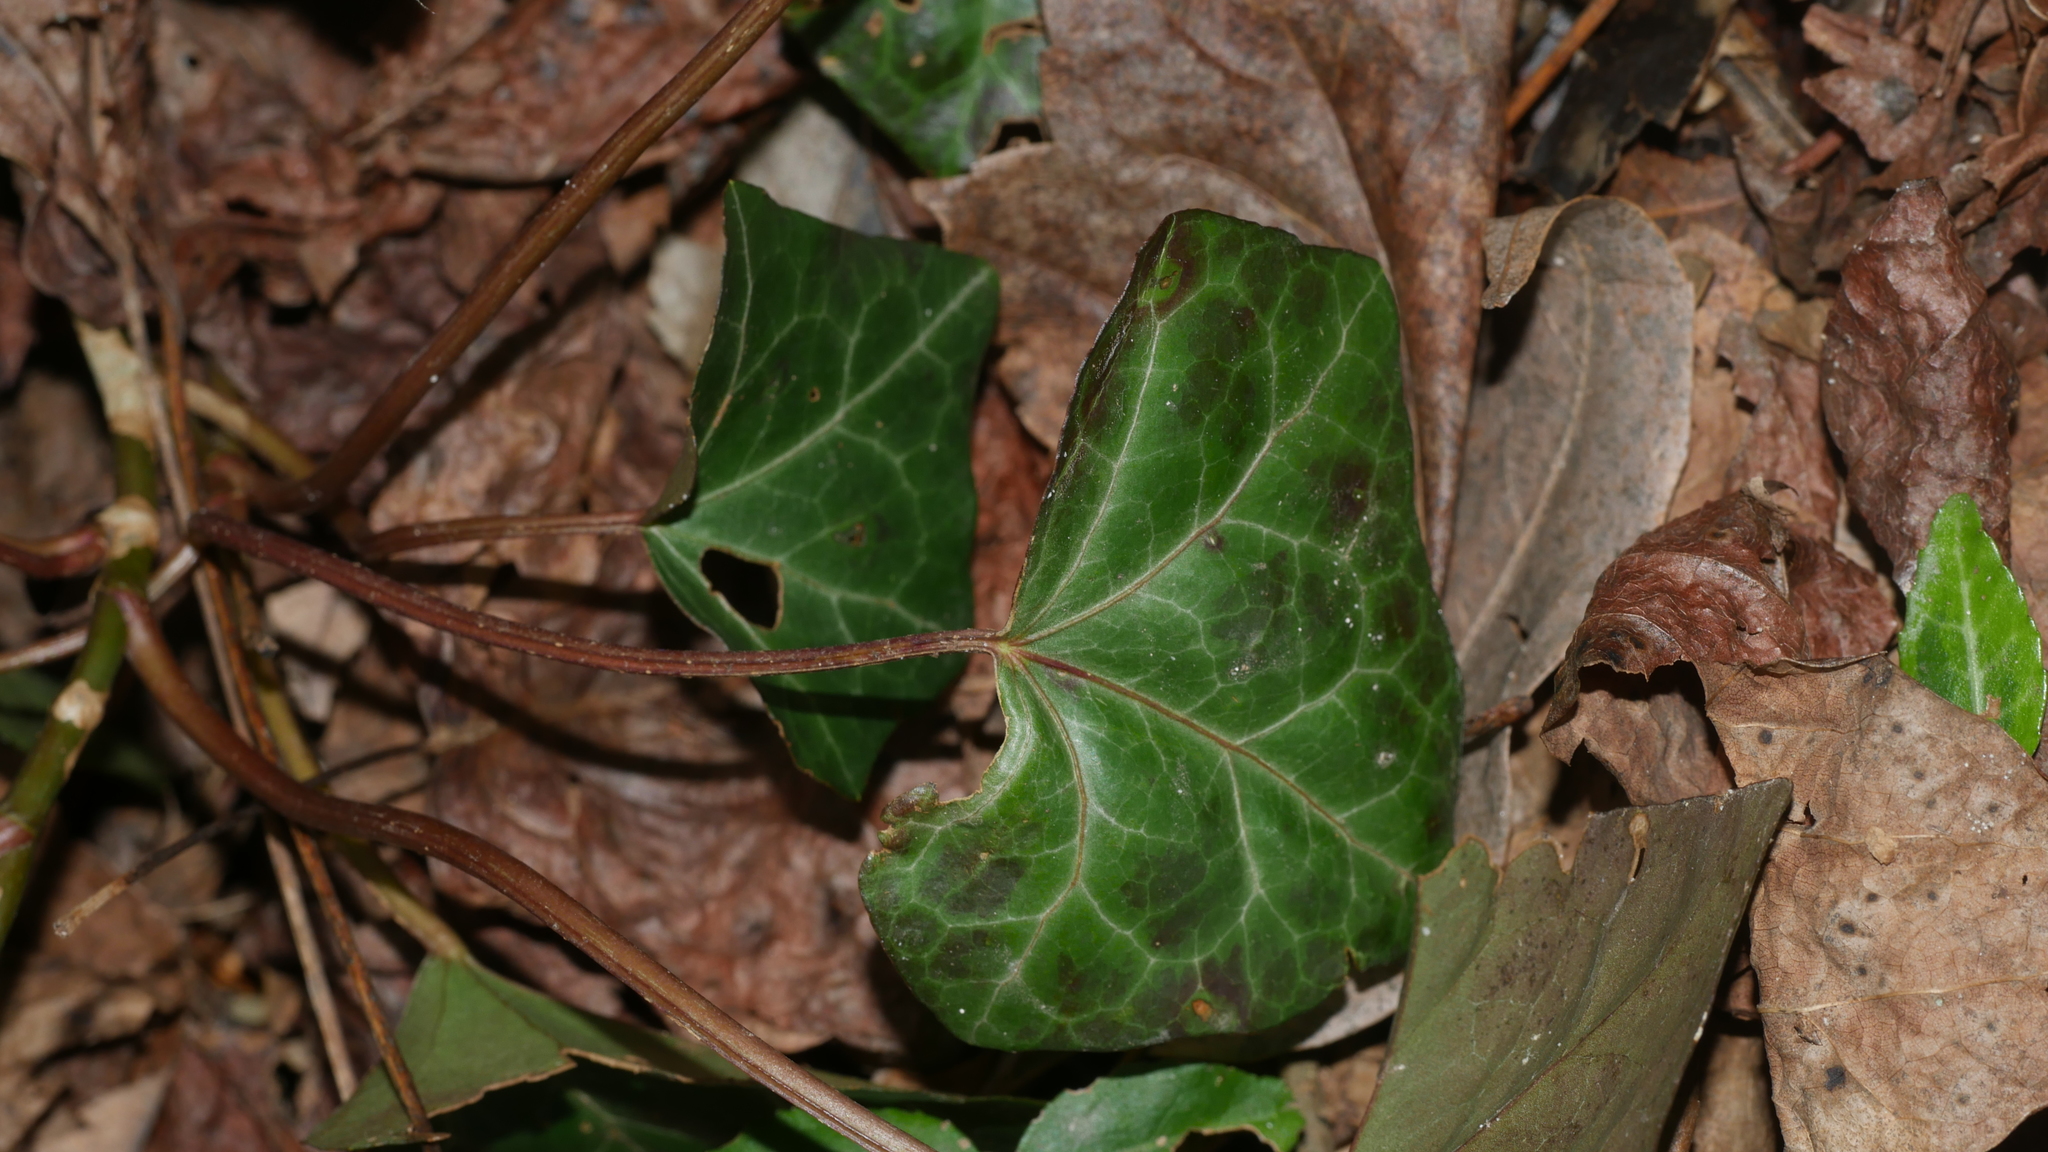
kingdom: Plantae
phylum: Tracheophyta
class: Magnoliopsida
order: Apiales
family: Araliaceae
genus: Hedera
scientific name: Hedera helix
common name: Ivy
